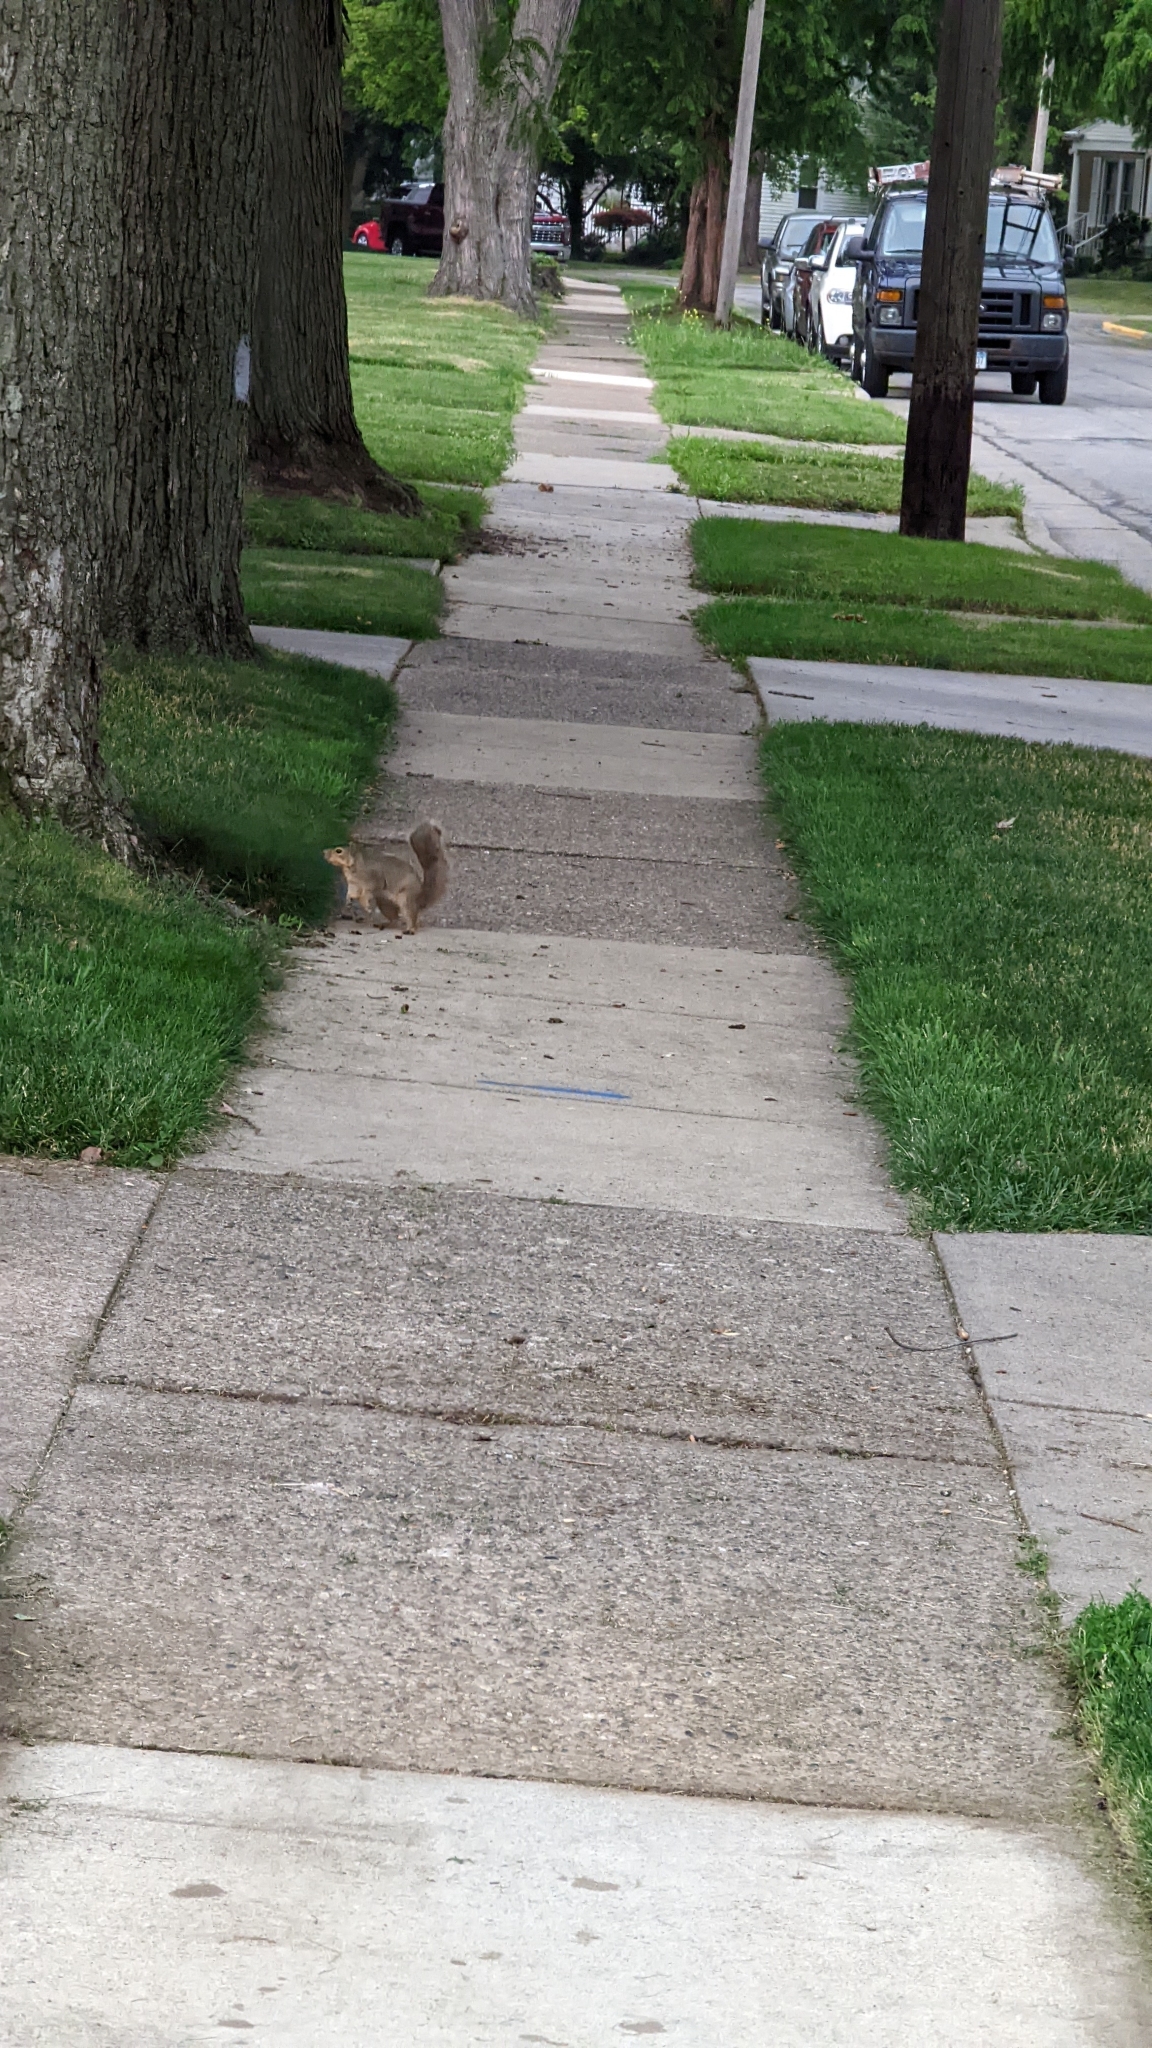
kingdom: Animalia
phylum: Chordata
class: Mammalia
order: Rodentia
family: Sciuridae
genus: Sciurus
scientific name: Sciurus niger
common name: Fox squirrel
